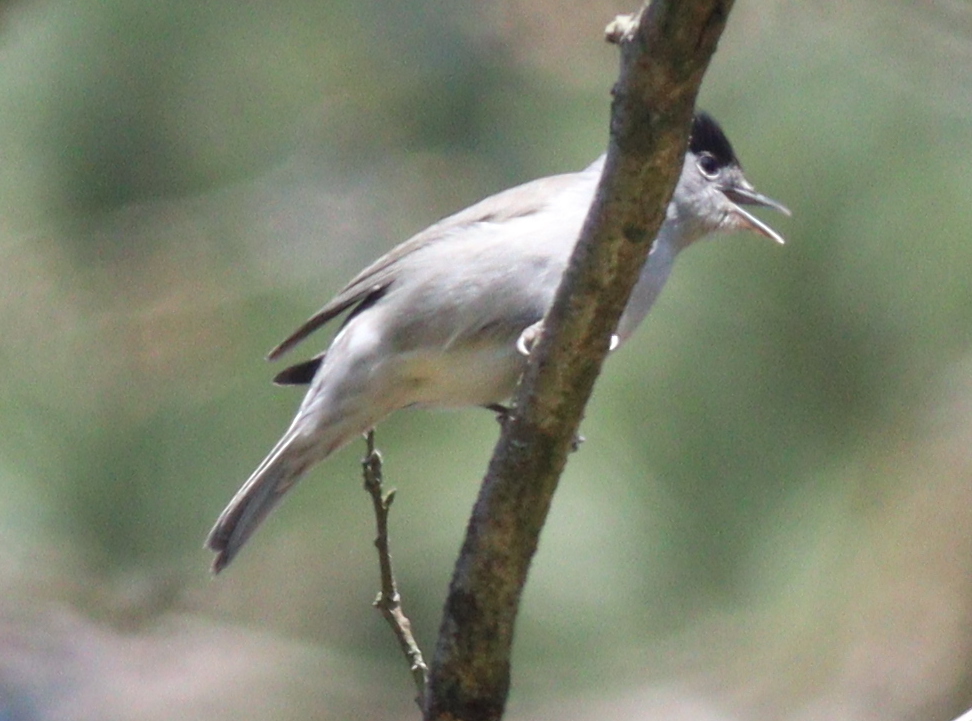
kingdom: Animalia
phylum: Chordata
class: Aves
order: Passeriformes
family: Sylviidae
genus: Sylvia
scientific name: Sylvia atricapilla
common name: Eurasian blackcap
